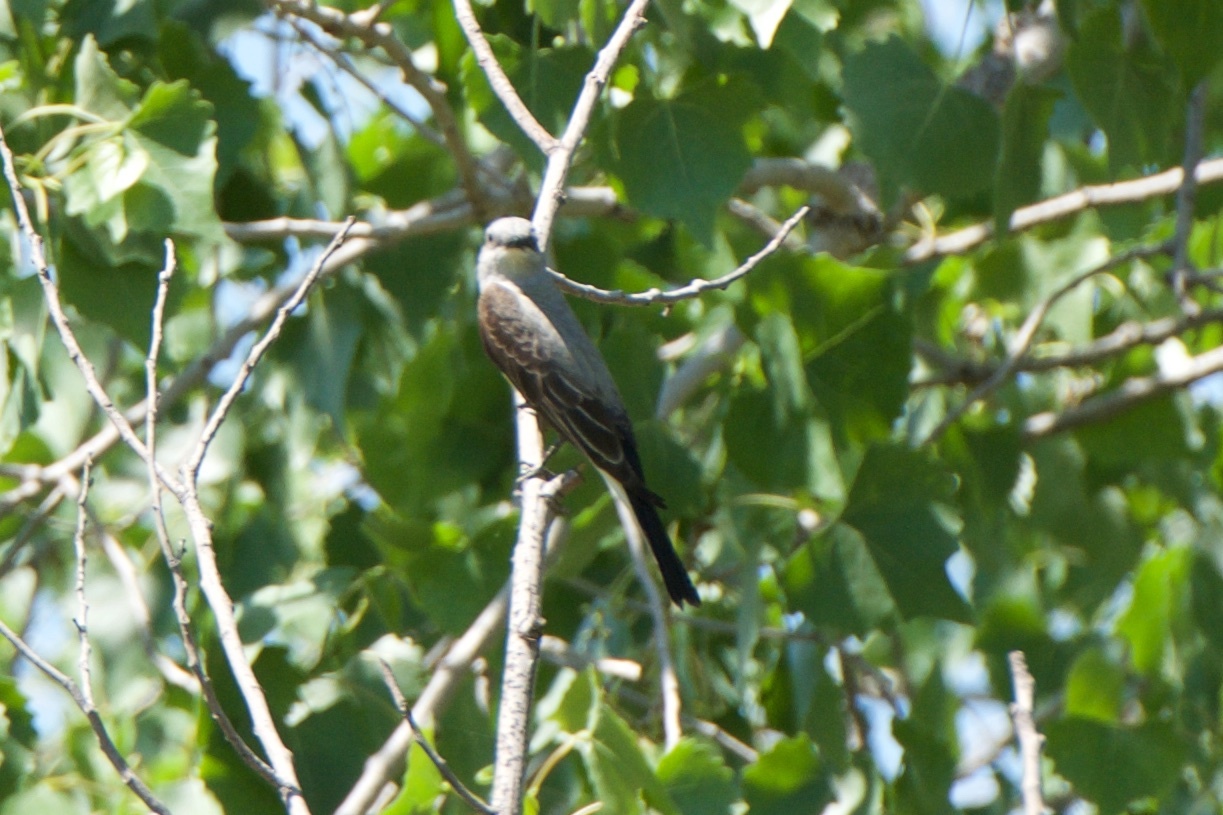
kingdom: Animalia
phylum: Chordata
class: Aves
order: Passeriformes
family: Tyrannidae
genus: Tyrannus
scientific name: Tyrannus verticalis
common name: Western kingbird
